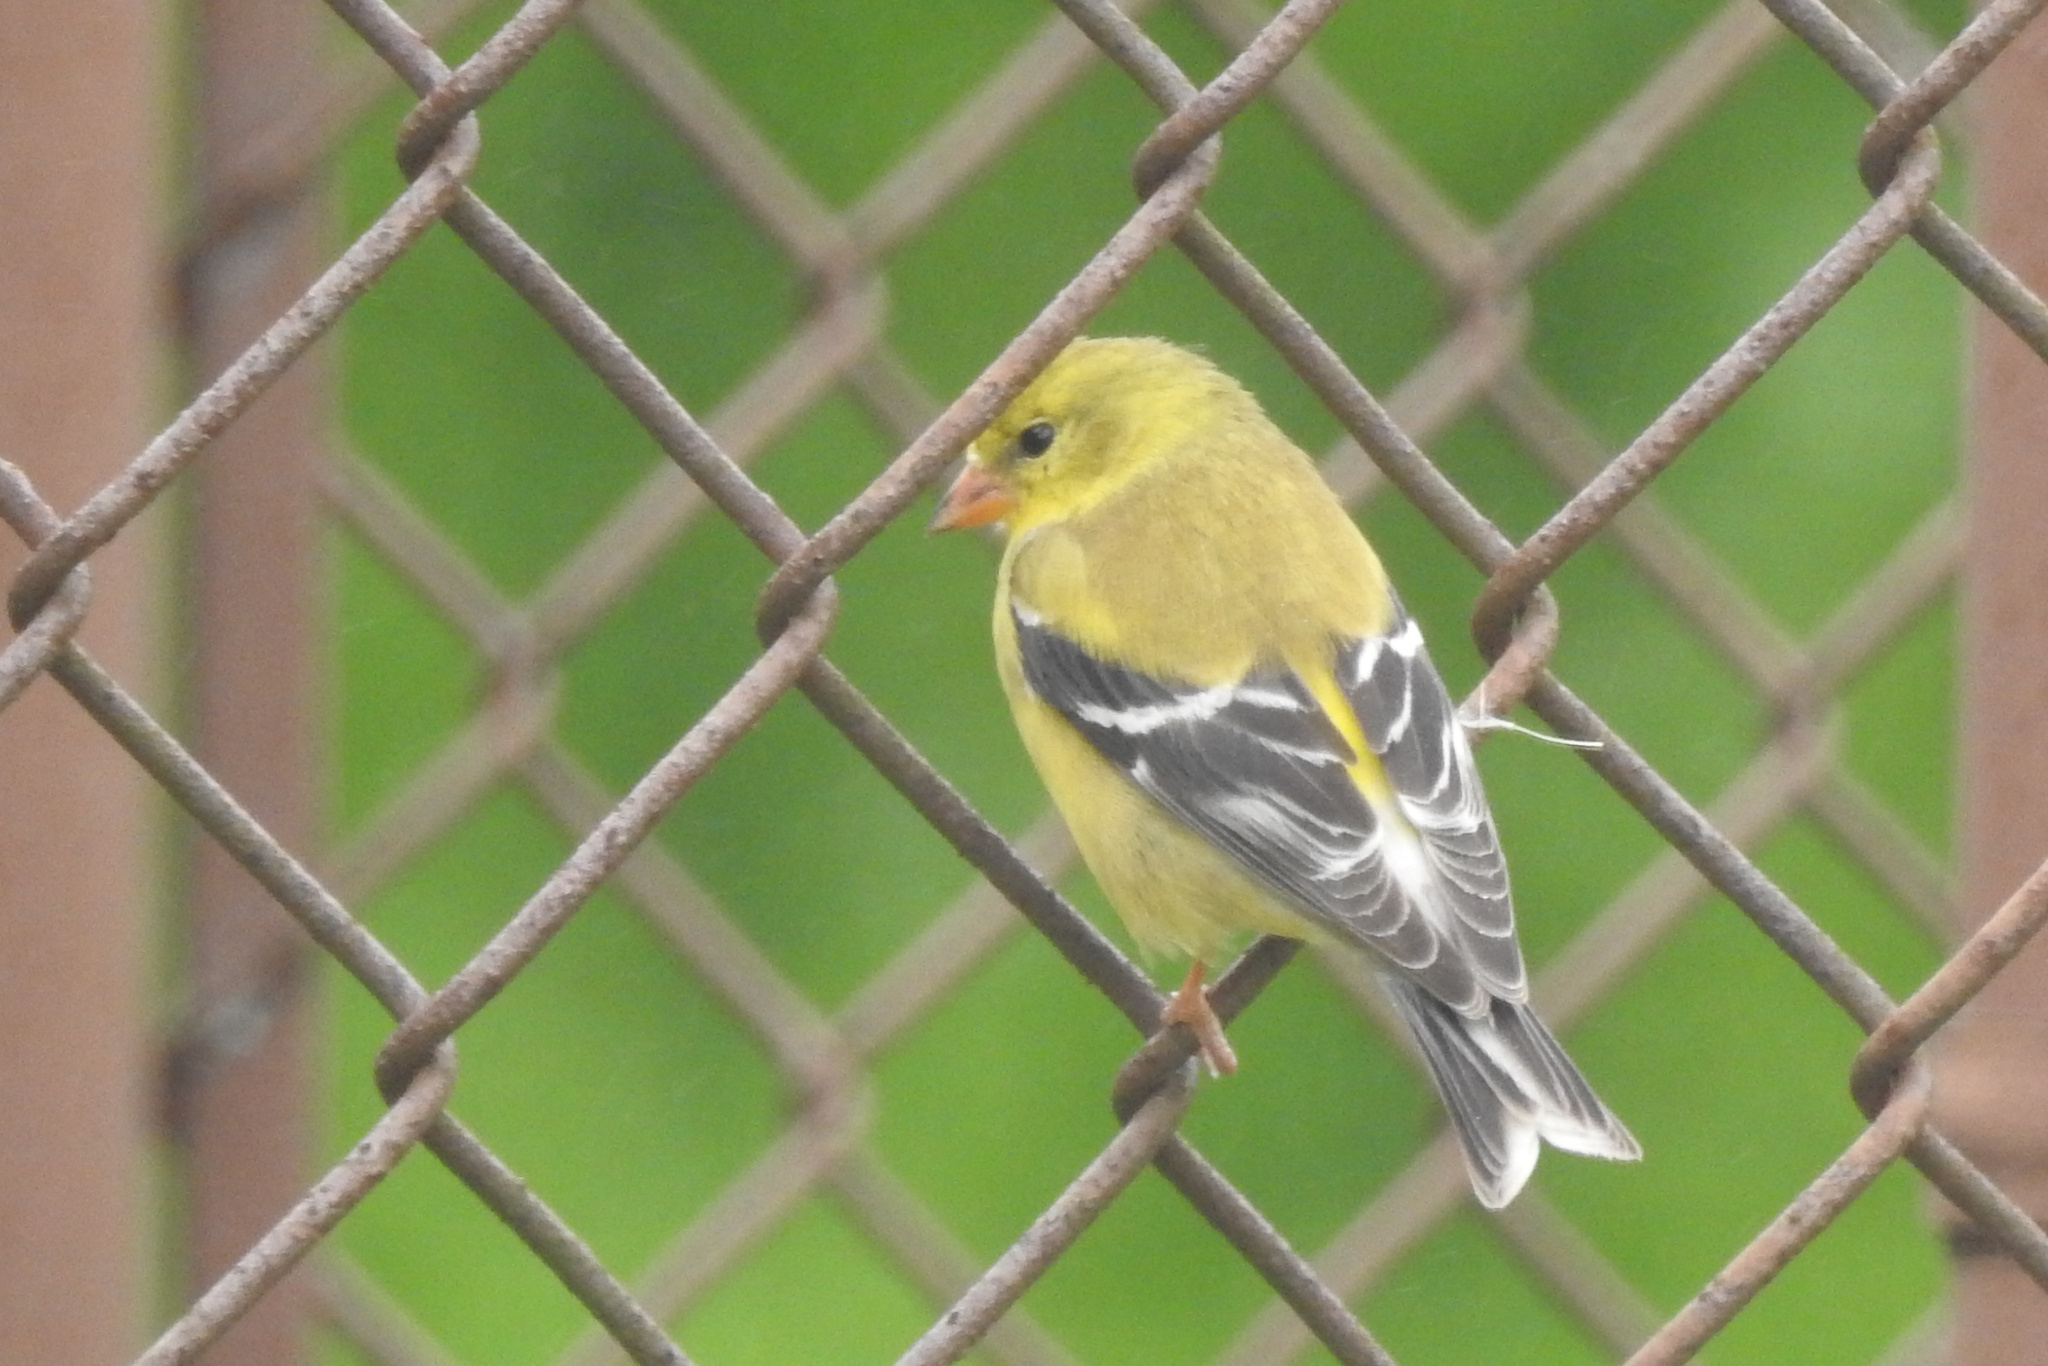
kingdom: Animalia
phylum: Chordata
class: Aves
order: Passeriformes
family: Fringillidae
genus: Spinus
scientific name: Spinus tristis
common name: American goldfinch
